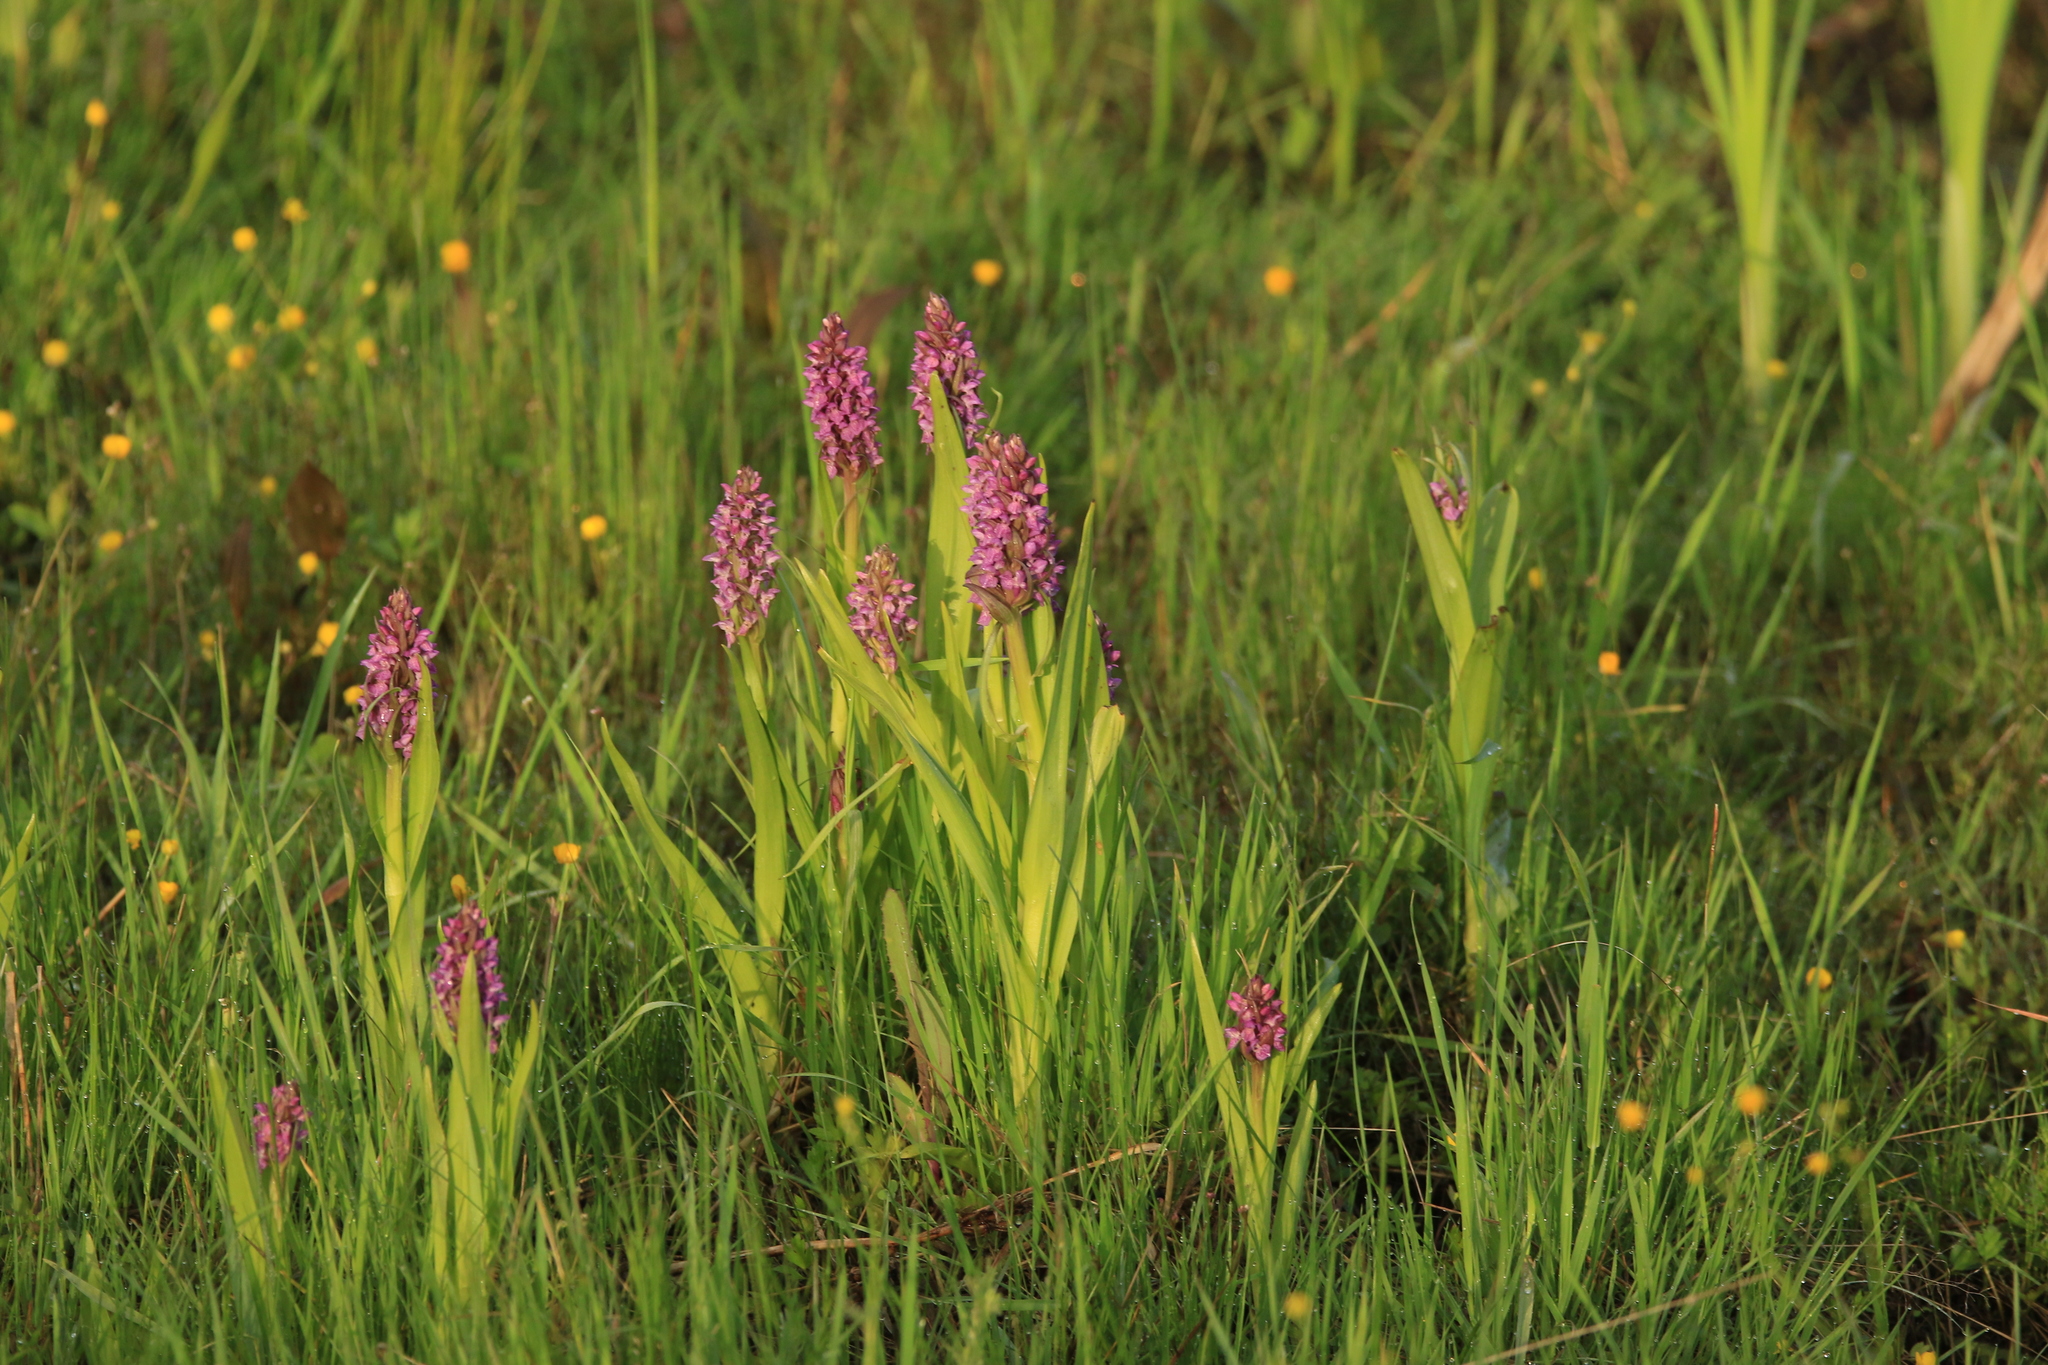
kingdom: Plantae
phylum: Tracheophyta
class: Liliopsida
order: Asparagales
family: Orchidaceae
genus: Dactylorhiza
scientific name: Dactylorhiza incarnata
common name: Early marsh-orchid
